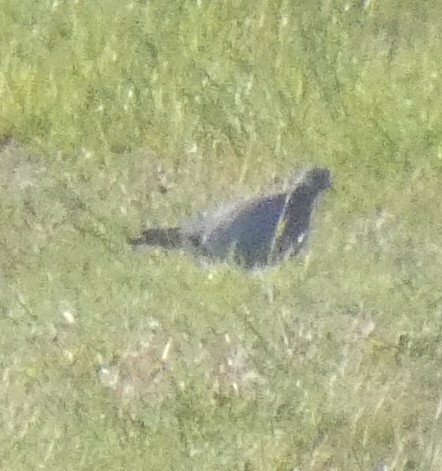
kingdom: Animalia
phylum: Chordata
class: Aves
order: Columbiformes
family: Columbidae
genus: Columba
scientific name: Columba oenas
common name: Stock dove
